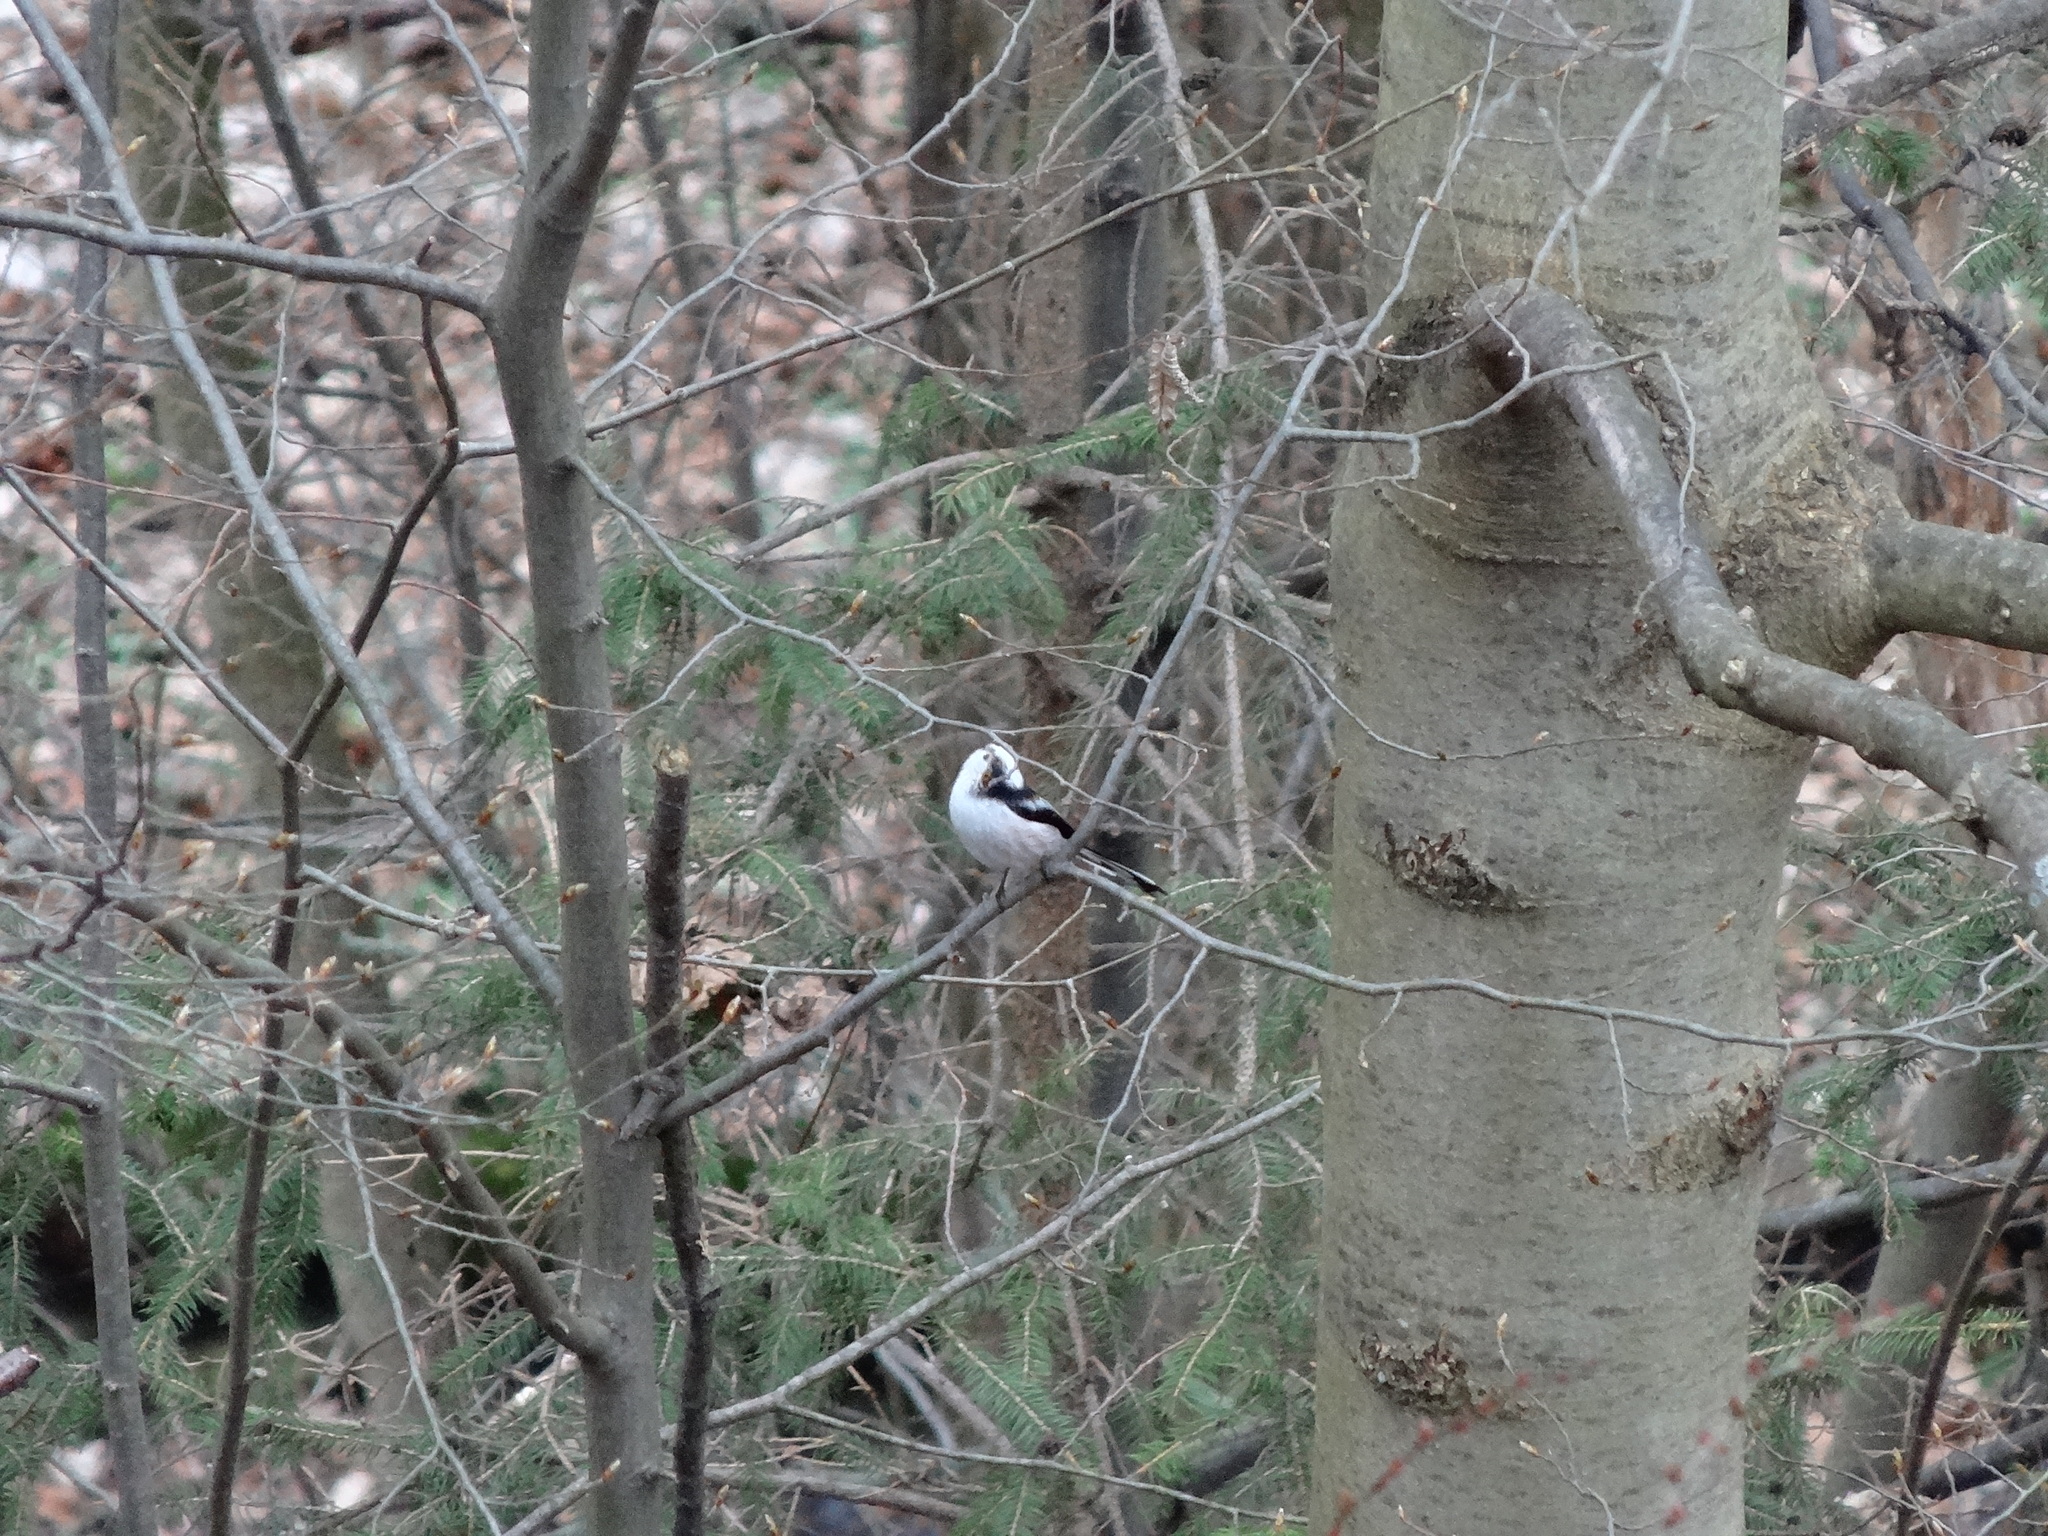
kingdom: Animalia
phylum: Chordata
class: Aves
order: Passeriformes
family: Aegithalidae
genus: Aegithalos
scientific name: Aegithalos caudatus
